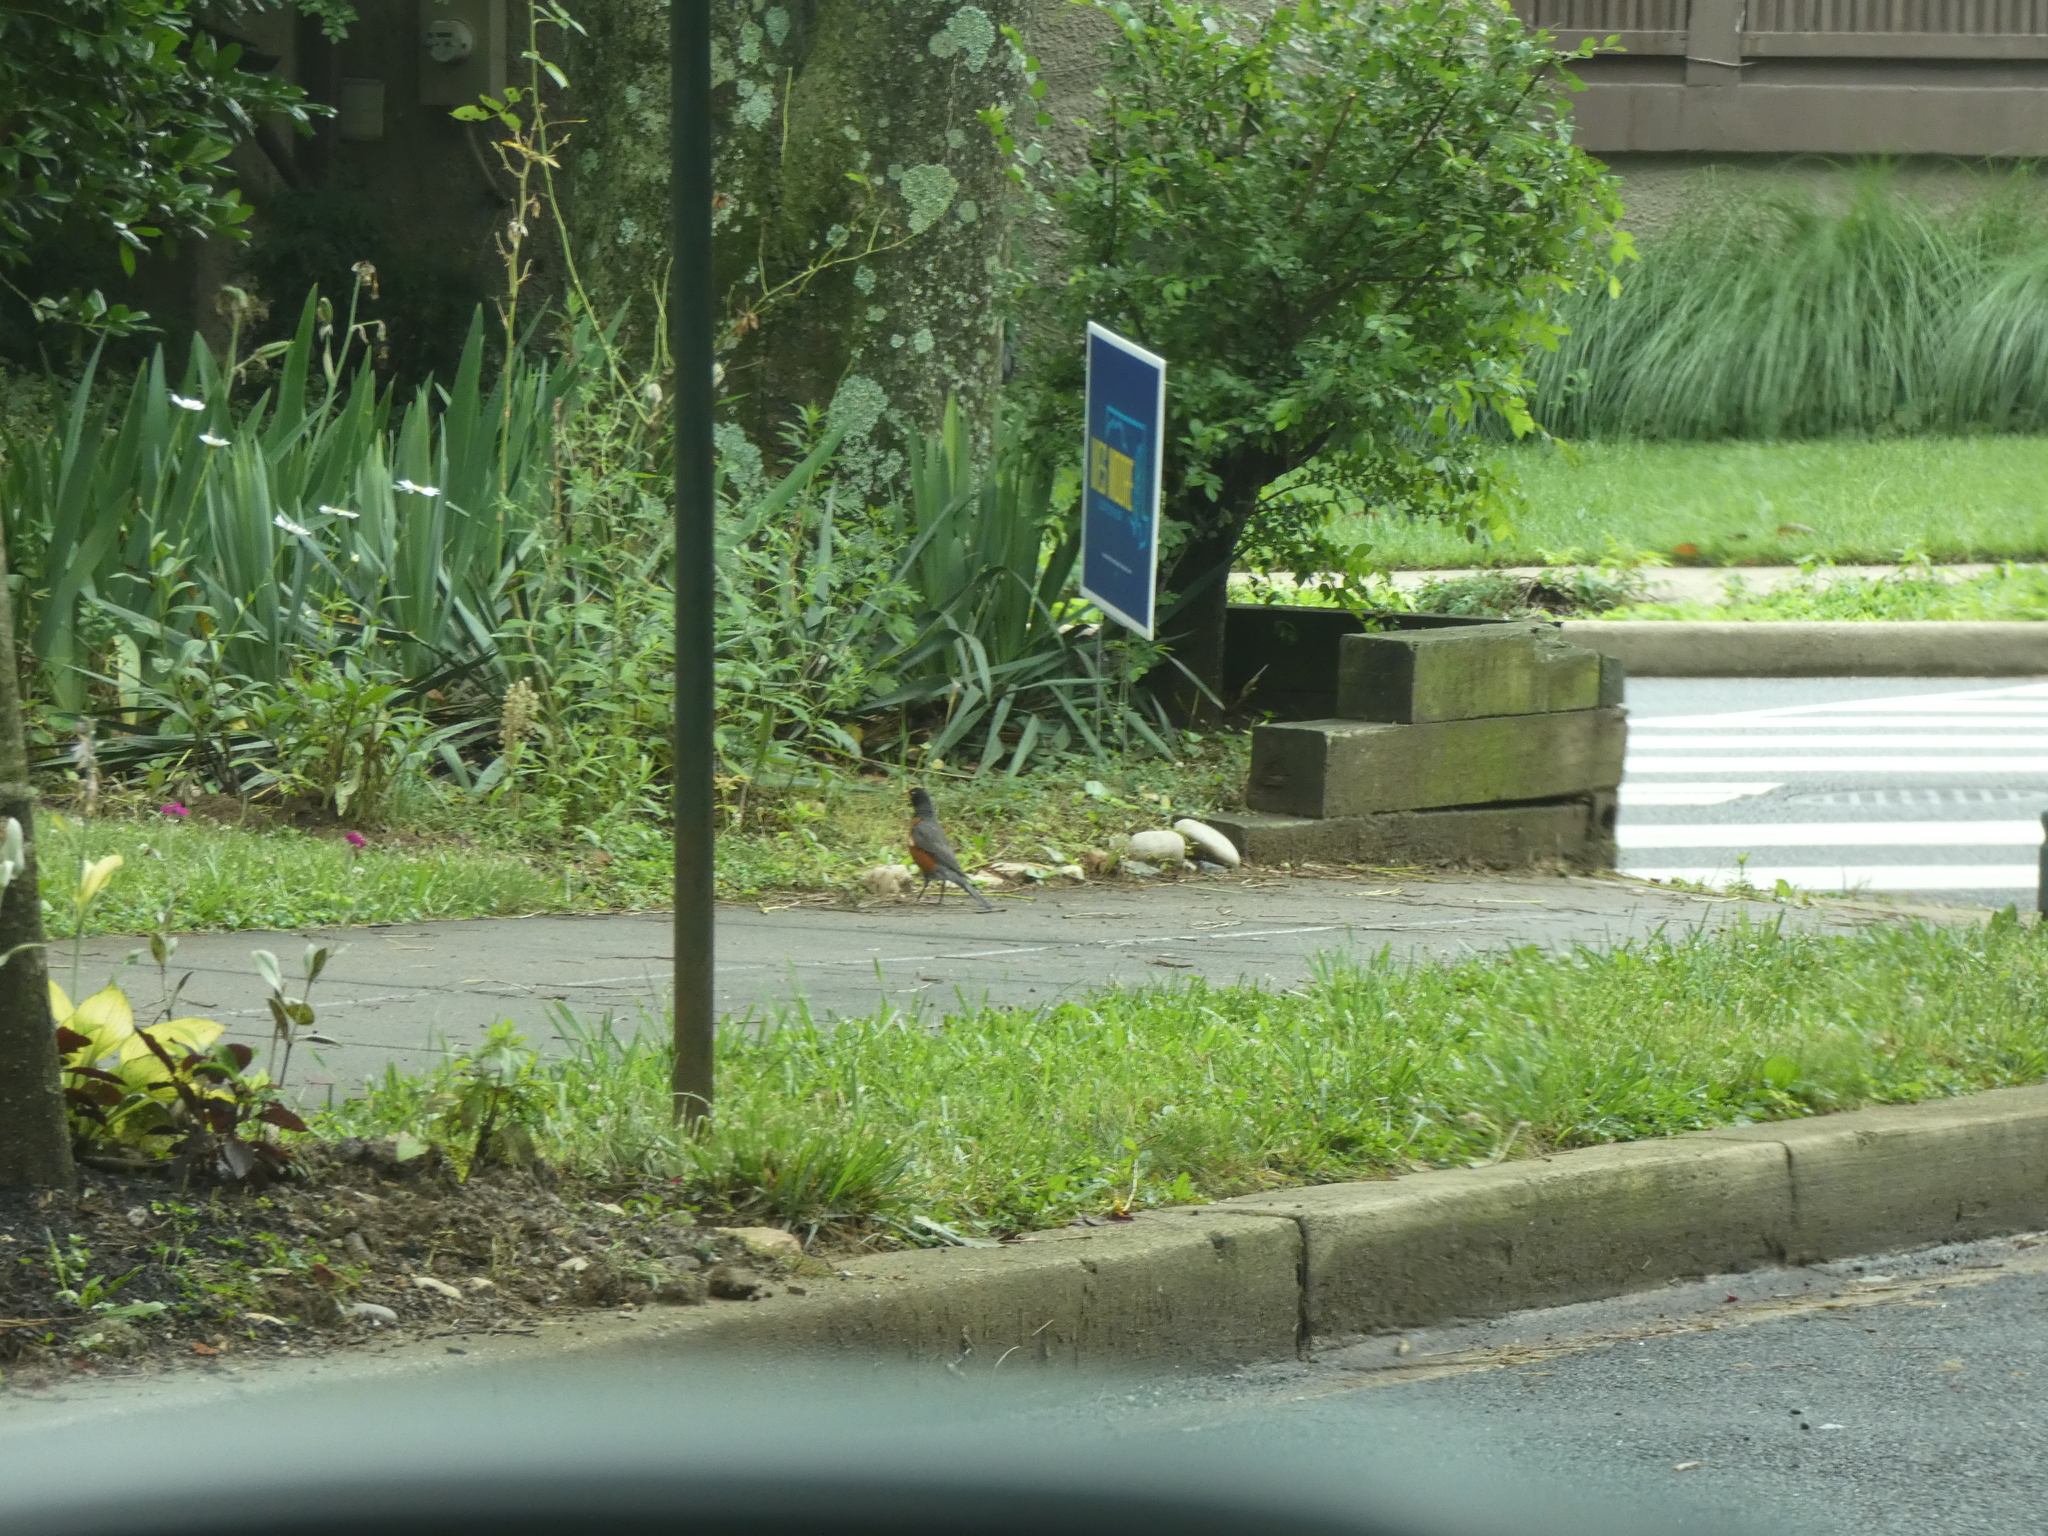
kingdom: Animalia
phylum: Chordata
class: Aves
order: Passeriformes
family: Turdidae
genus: Turdus
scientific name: Turdus migratorius
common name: American robin
